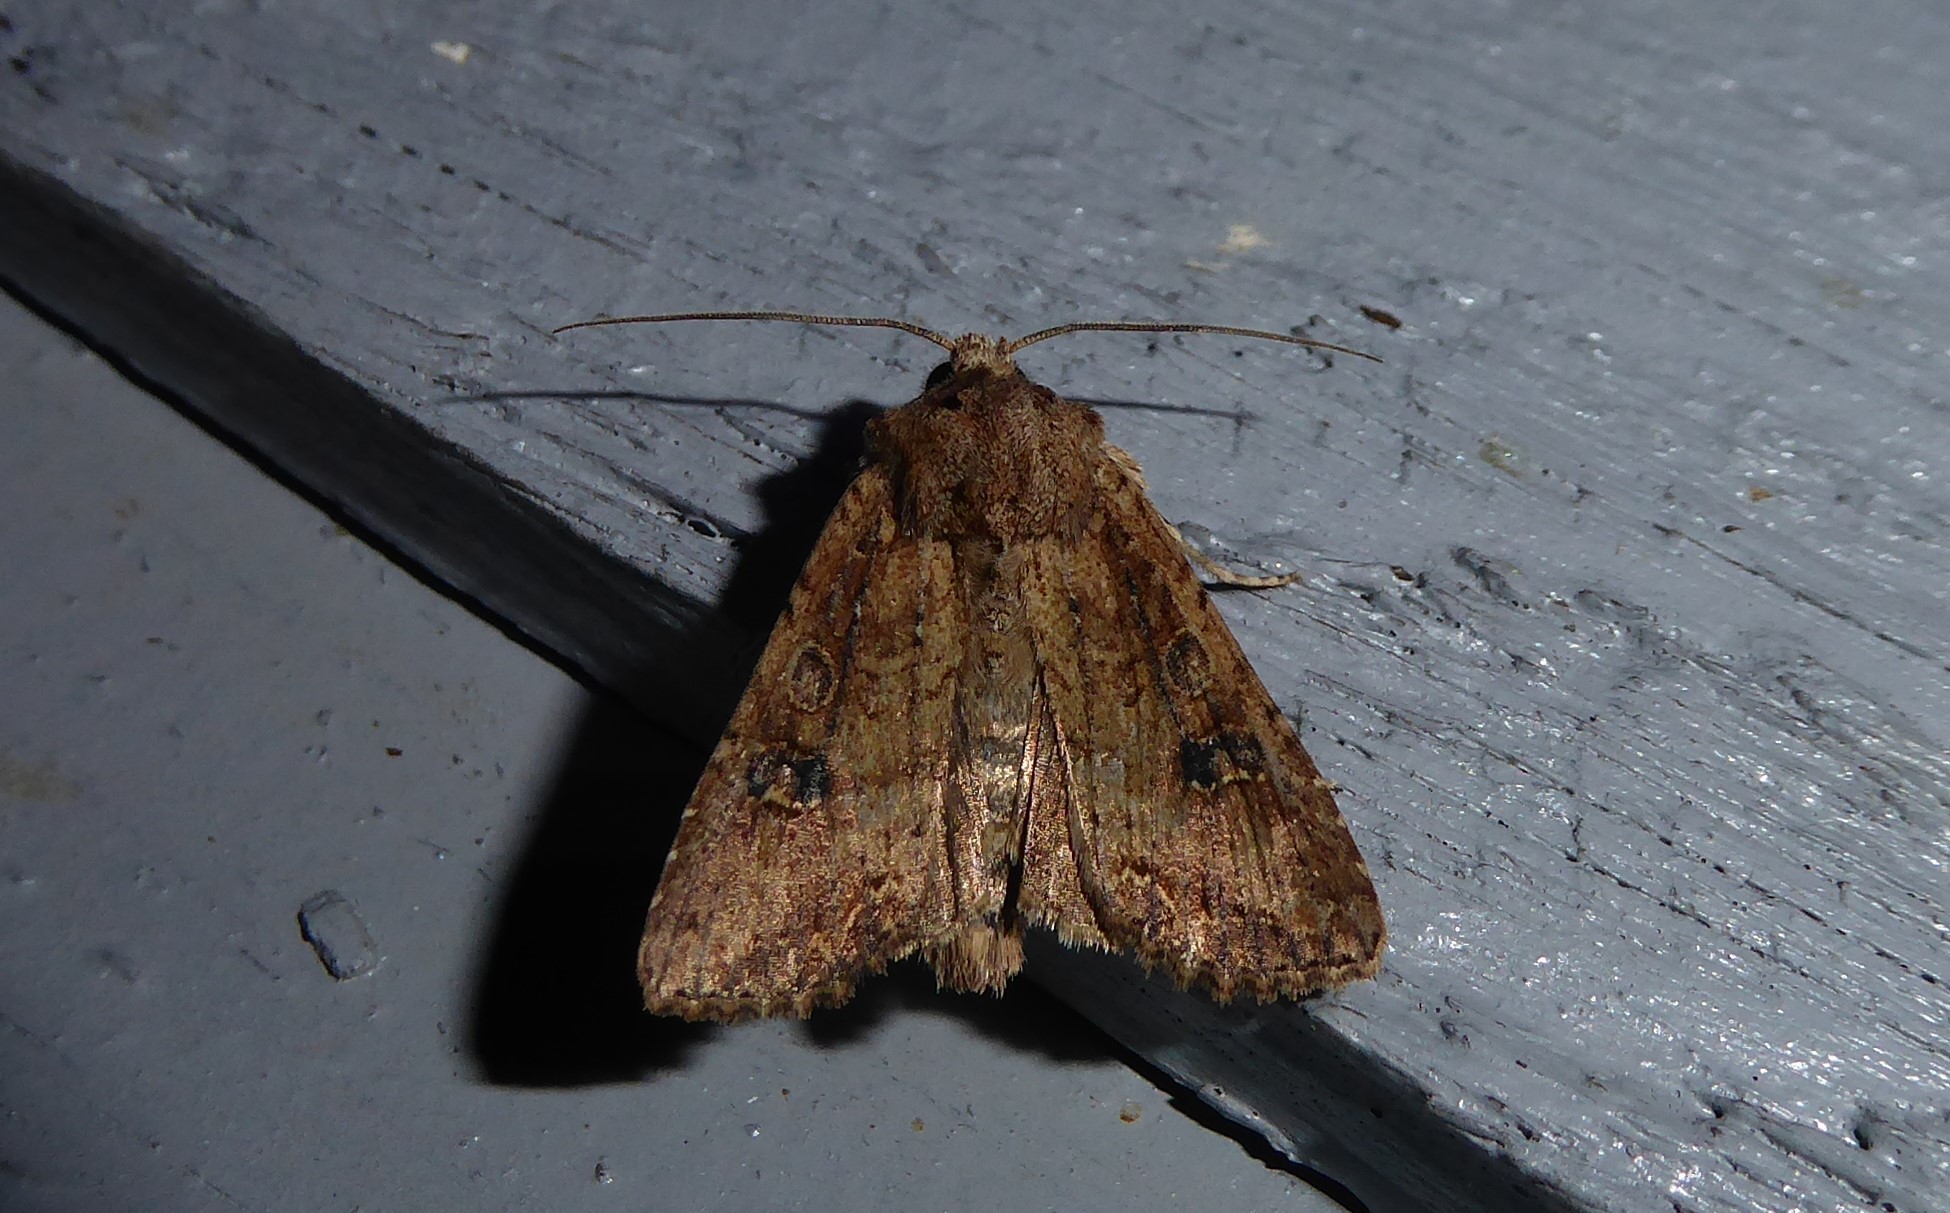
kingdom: Animalia
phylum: Arthropoda
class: Insecta
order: Lepidoptera
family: Noctuidae
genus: Ichneutica
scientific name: Ichneutica morosa
